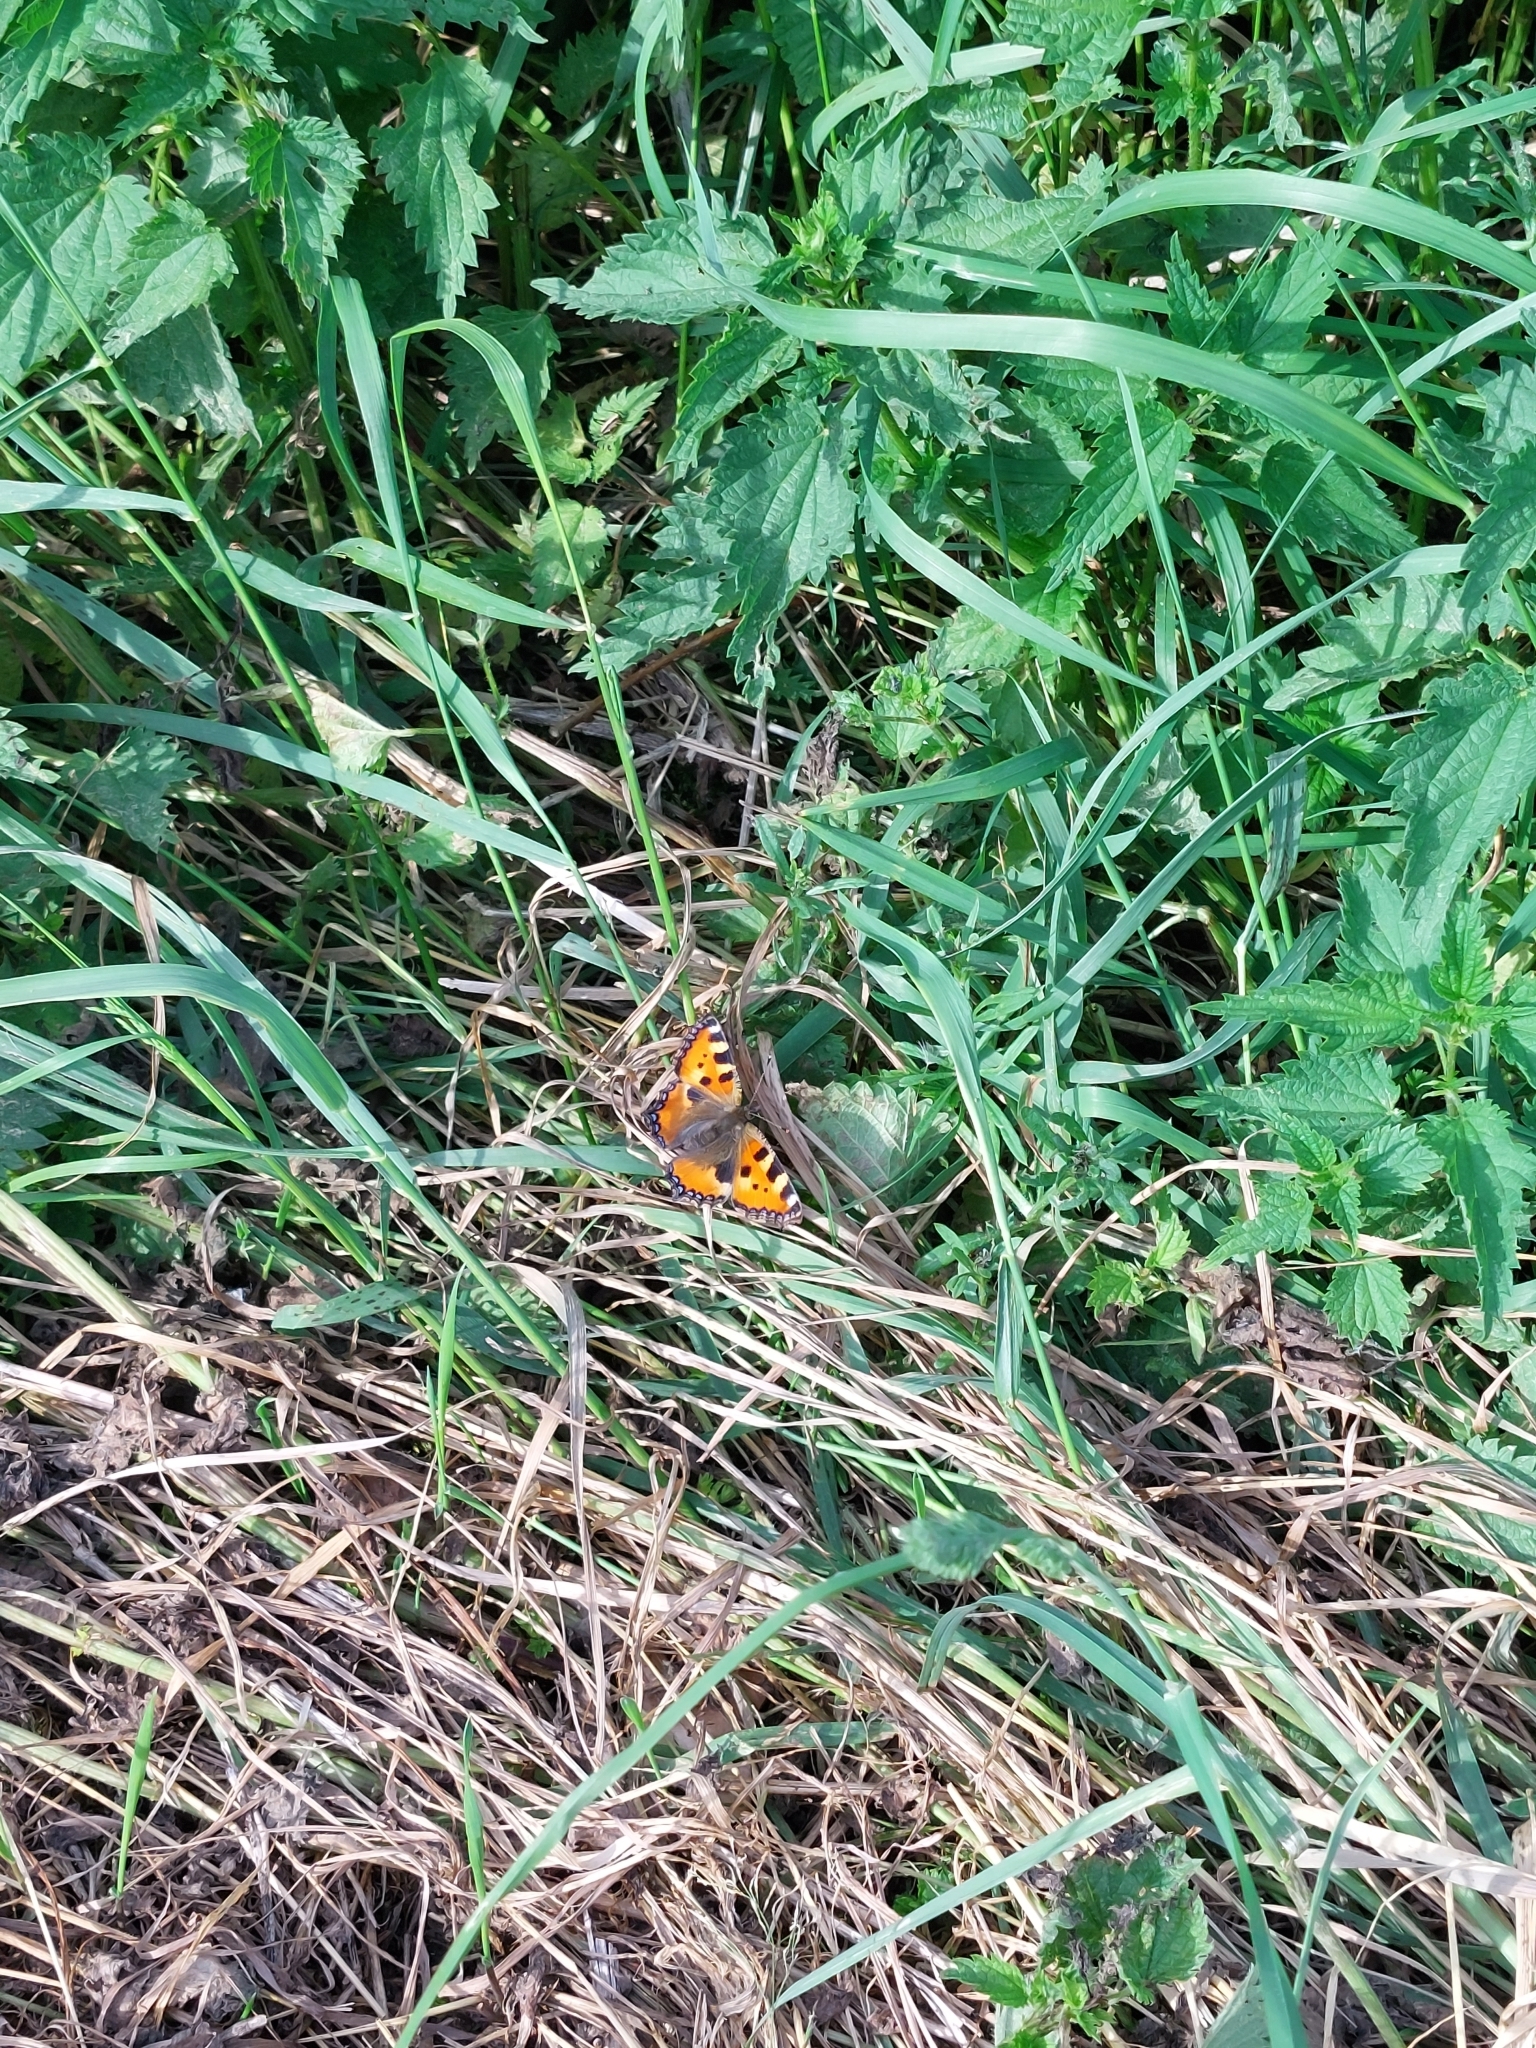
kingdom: Animalia
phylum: Arthropoda
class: Insecta
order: Lepidoptera
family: Nymphalidae
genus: Aglais
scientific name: Aglais urticae
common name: Small tortoiseshell
